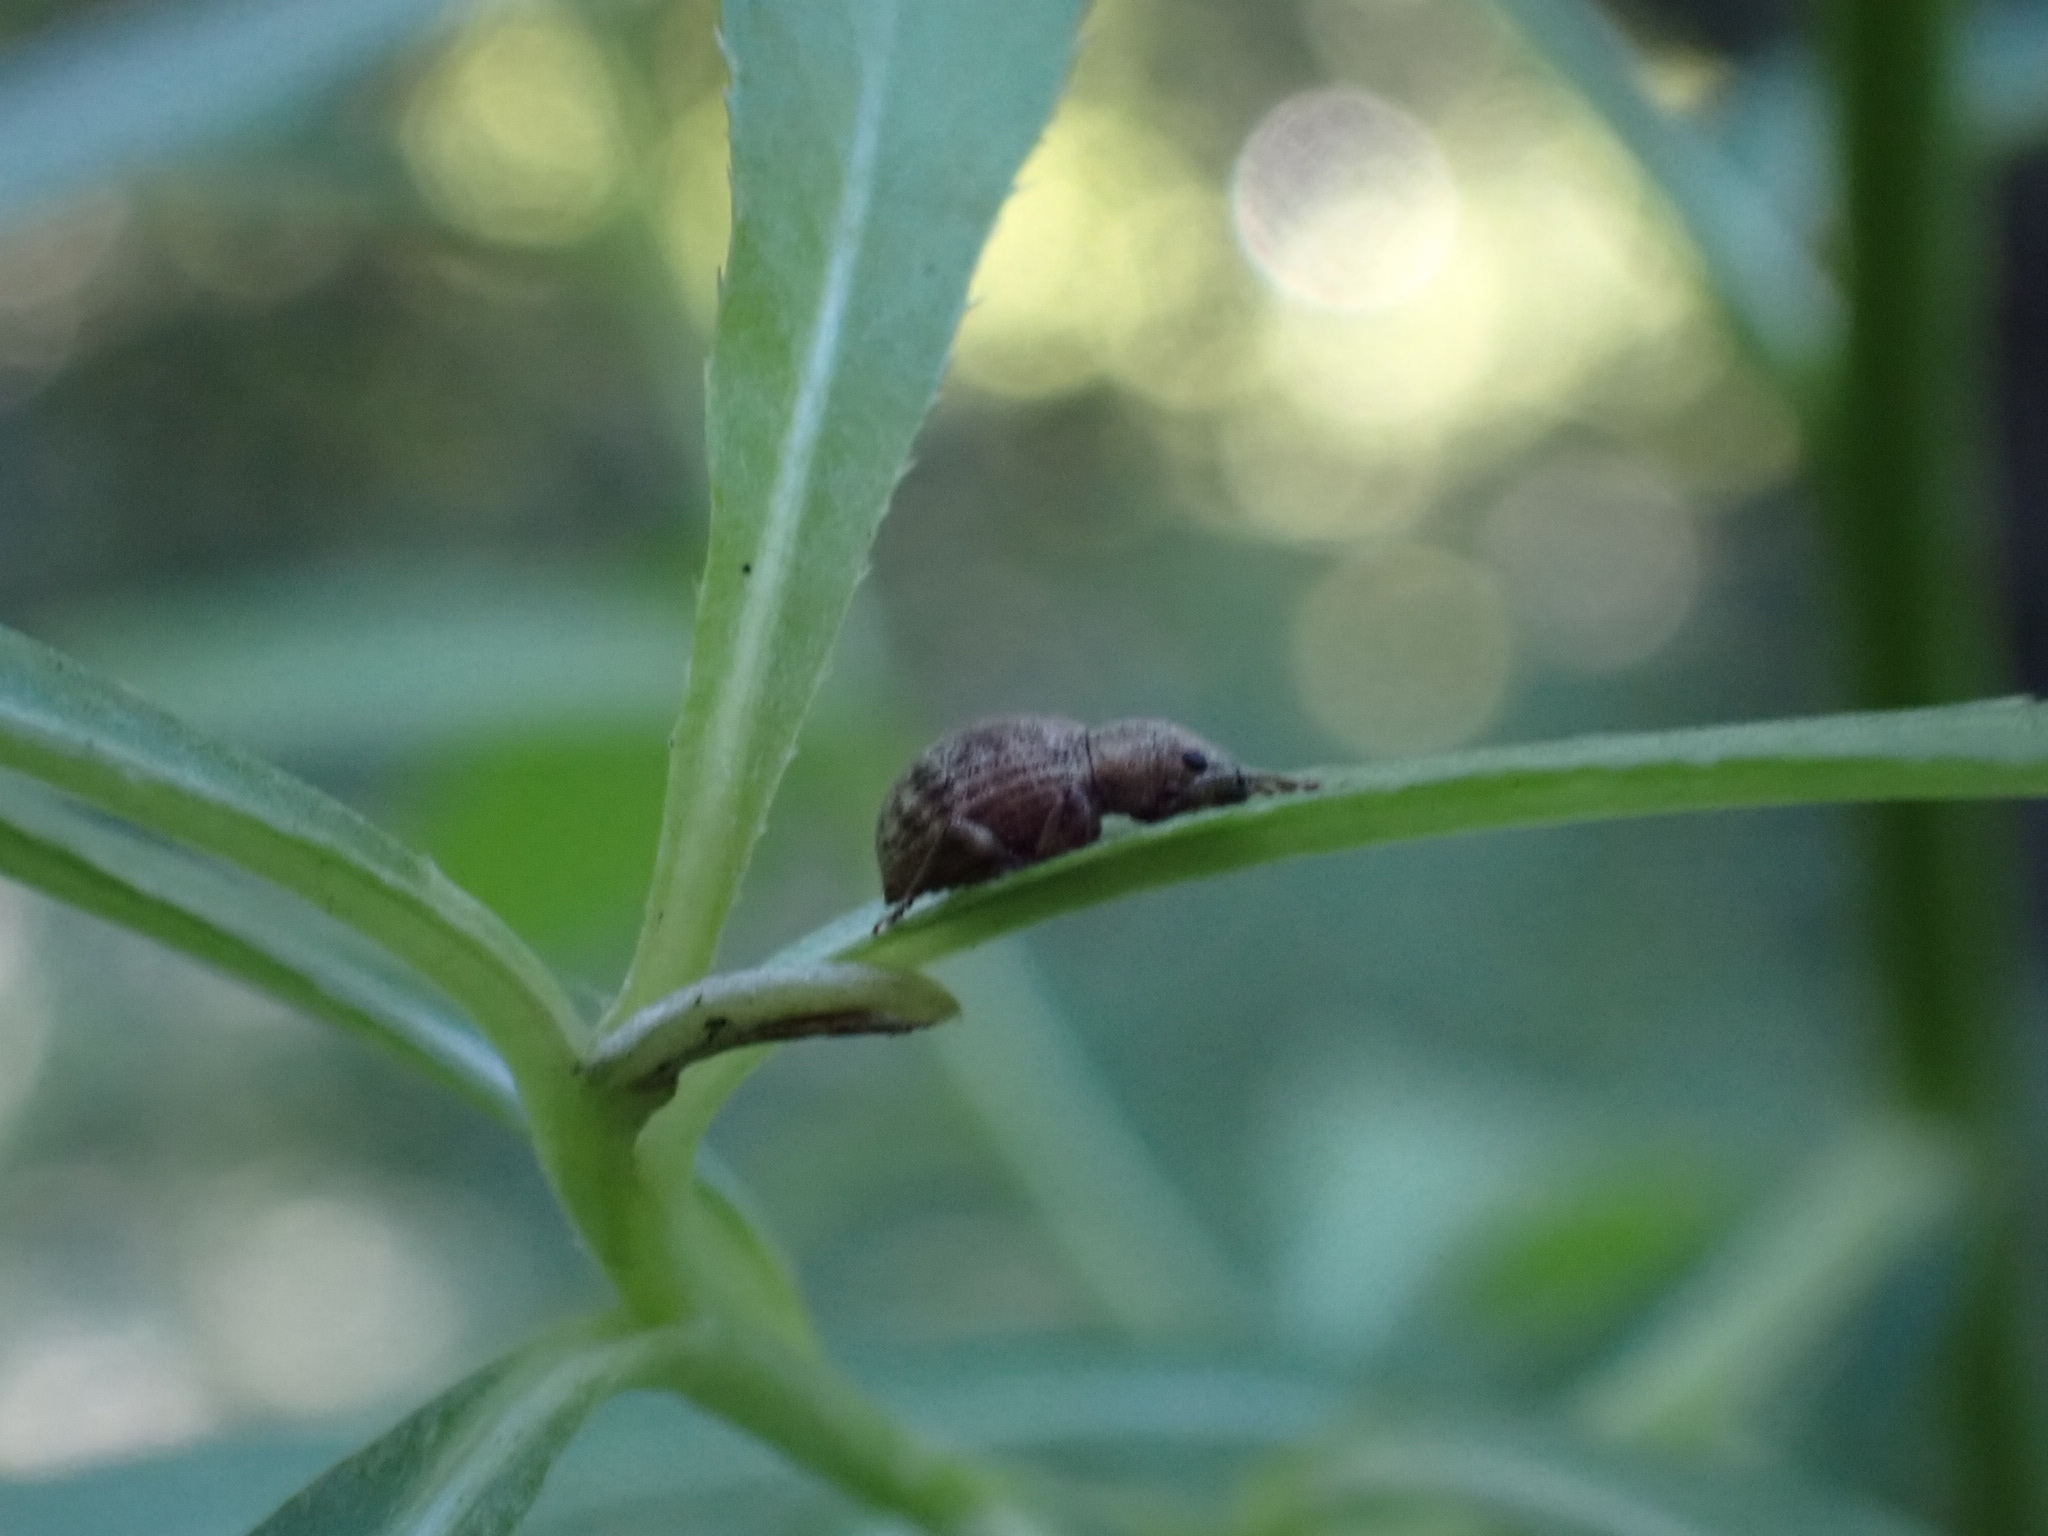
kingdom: Animalia
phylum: Arthropoda
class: Insecta
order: Coleoptera
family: Curculionidae
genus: Sciaphilus
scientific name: Sciaphilus asperatus
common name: Weevil
